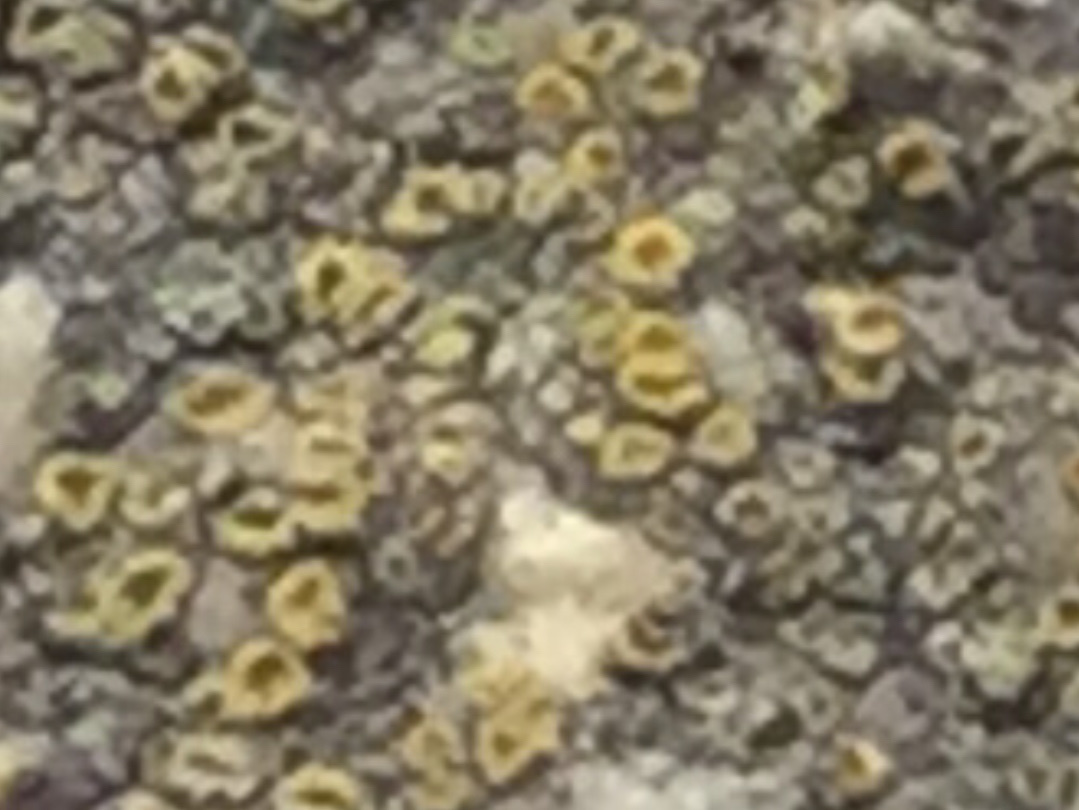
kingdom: Fungi
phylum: Ascomycota
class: Candelariomycetes
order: Candelariales
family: Candelariaceae
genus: Candelaria
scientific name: Candelaria concolor
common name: Candleflame lichen
